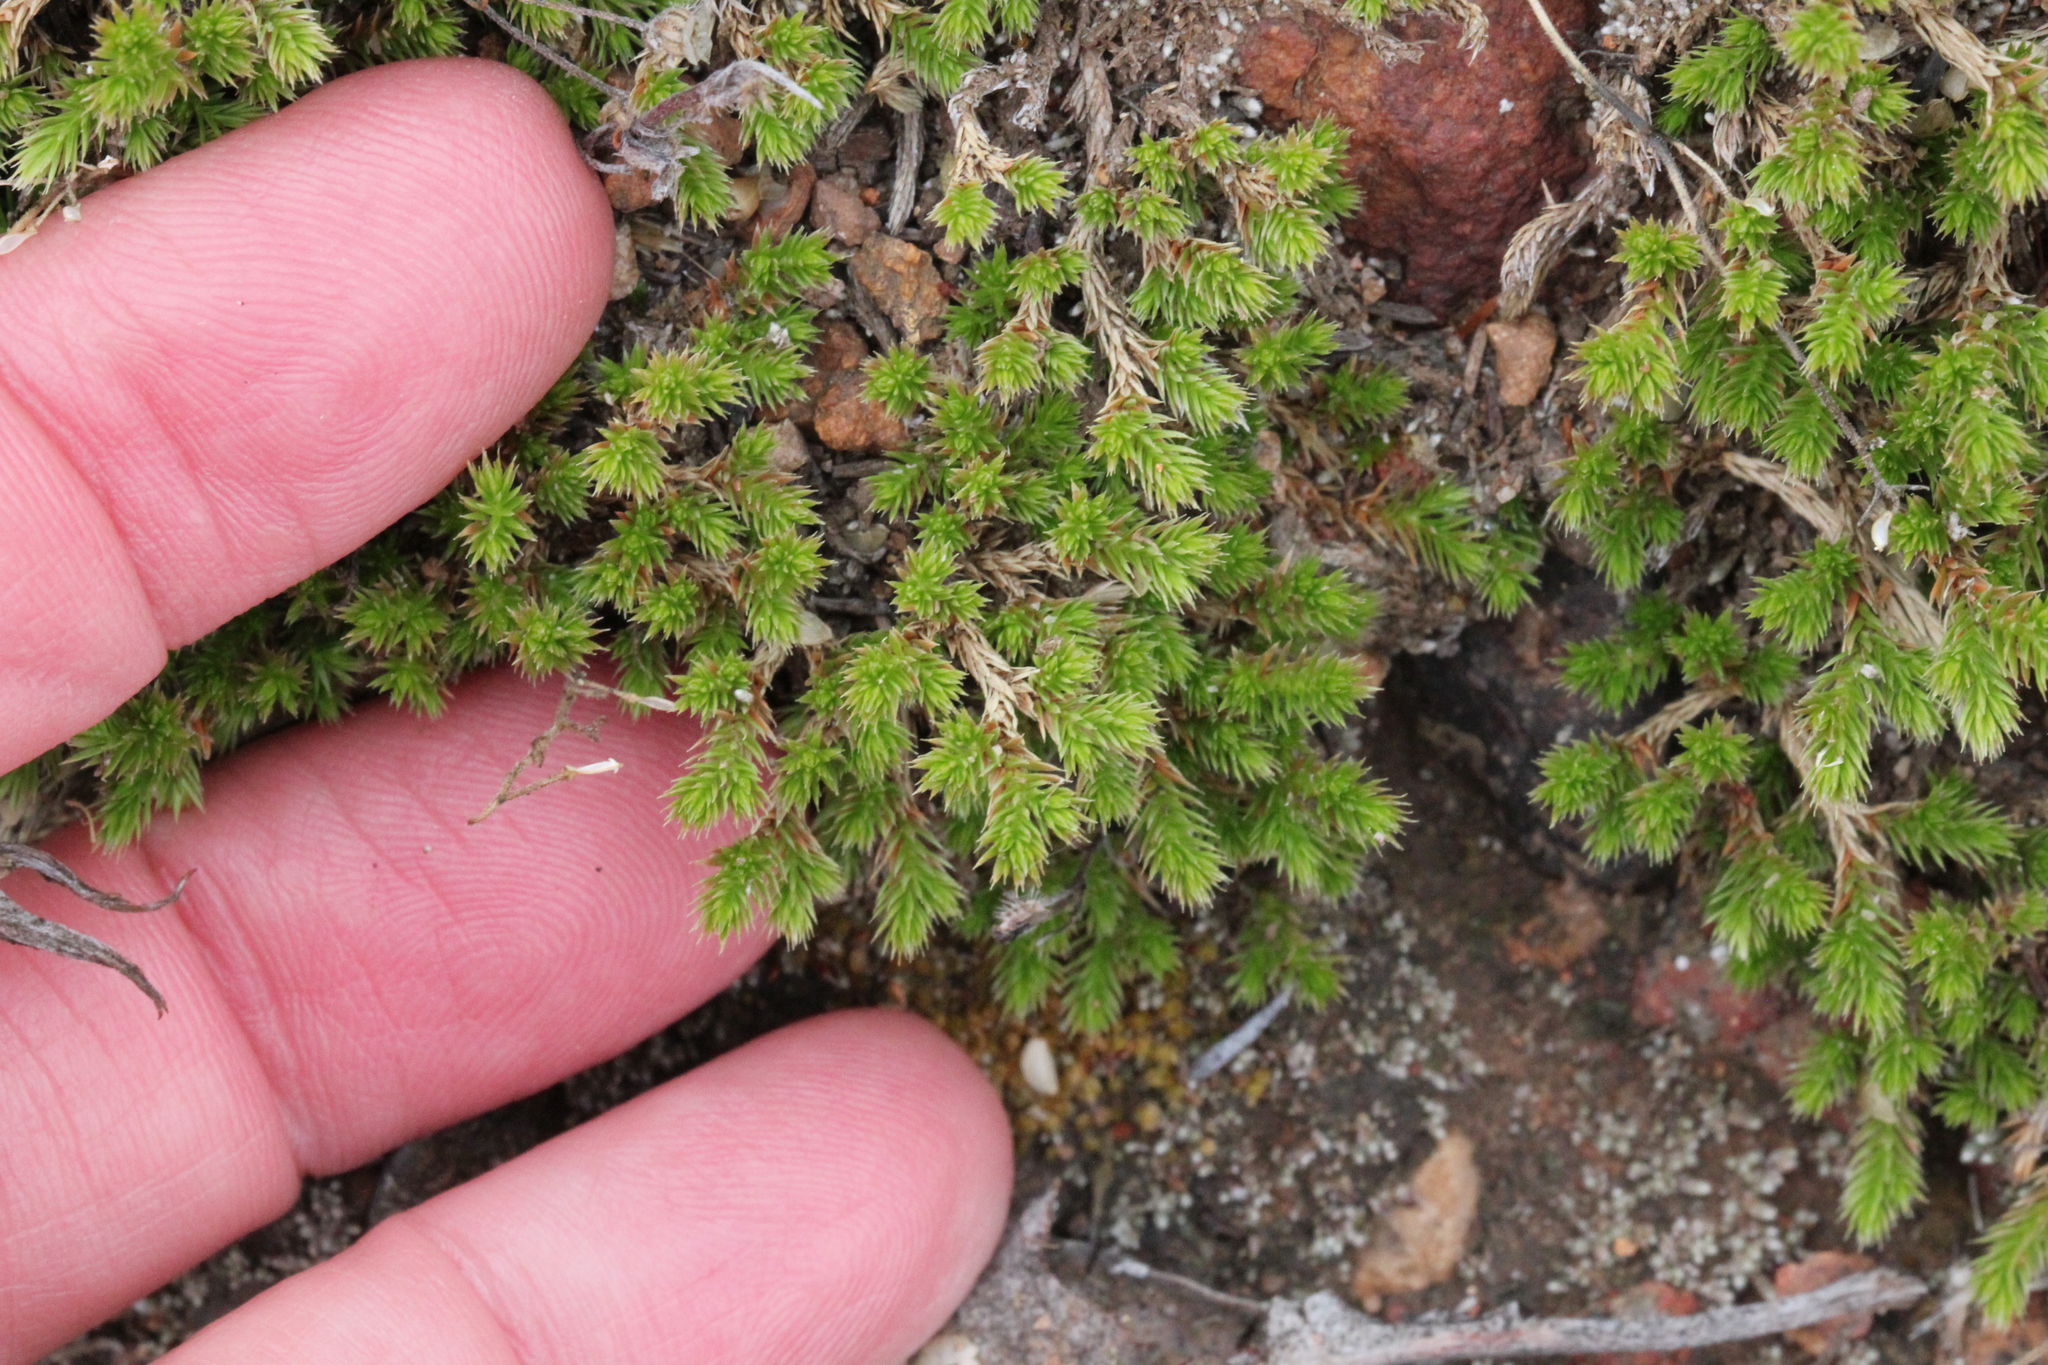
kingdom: Plantae
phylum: Tracheophyta
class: Lycopodiopsida
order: Selaginellales
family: Selaginellaceae
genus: Selaginella
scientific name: Selaginella cinerascens
